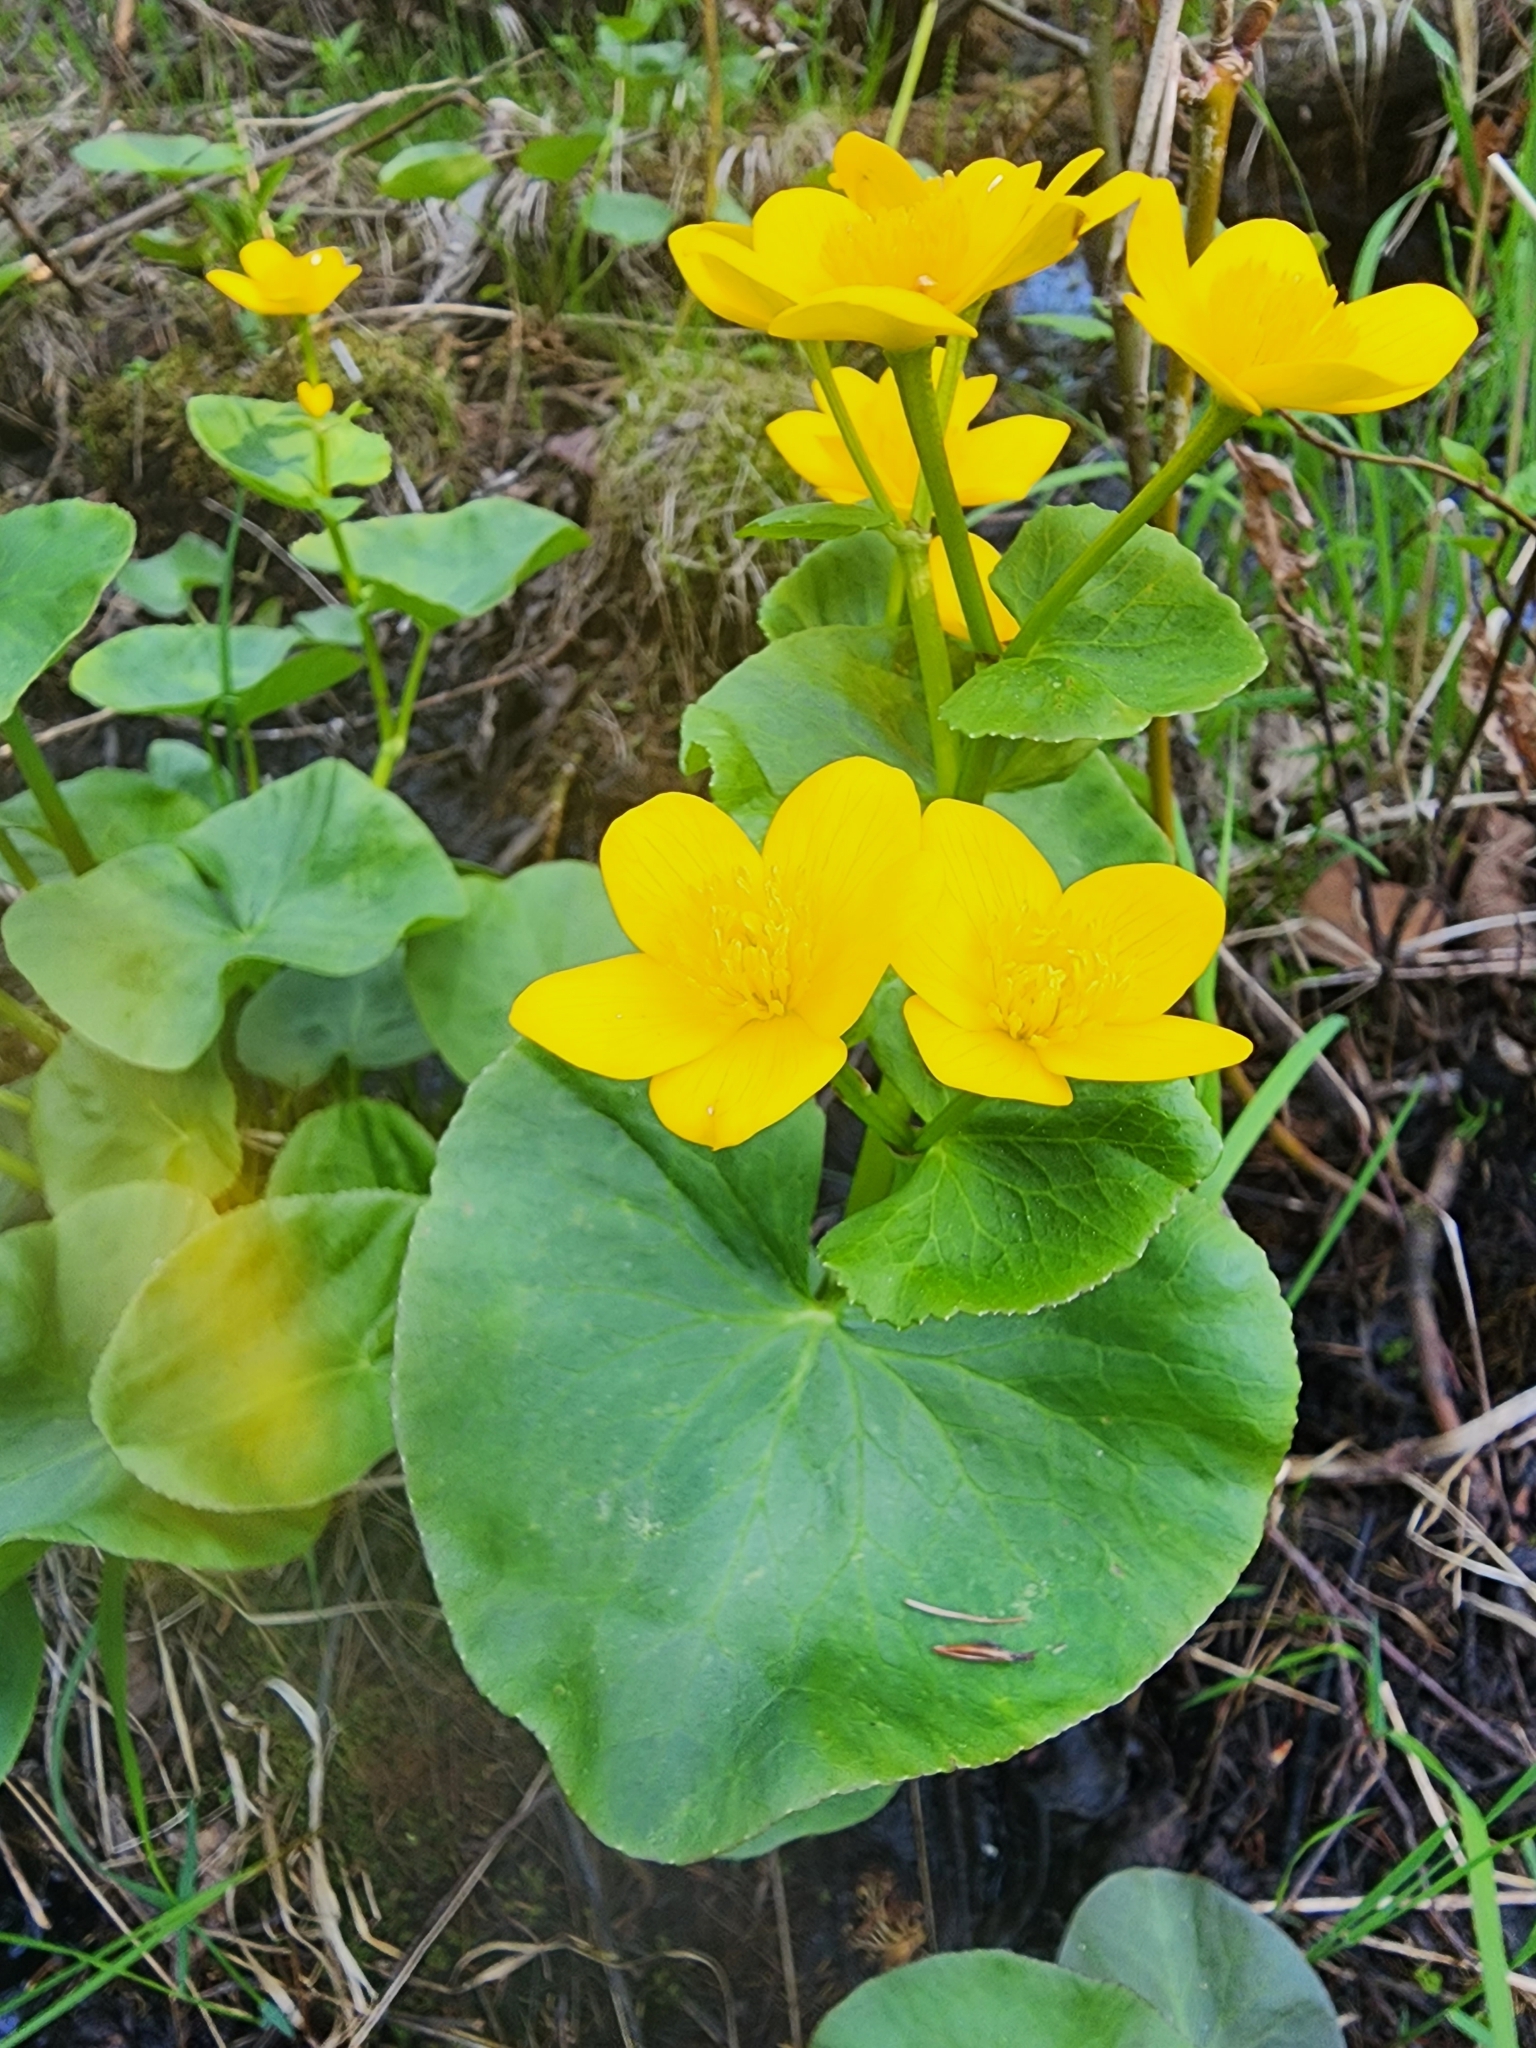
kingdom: Plantae
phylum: Tracheophyta
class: Magnoliopsida
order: Ranunculales
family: Ranunculaceae
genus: Caltha
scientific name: Caltha palustris
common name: Marsh marigold
